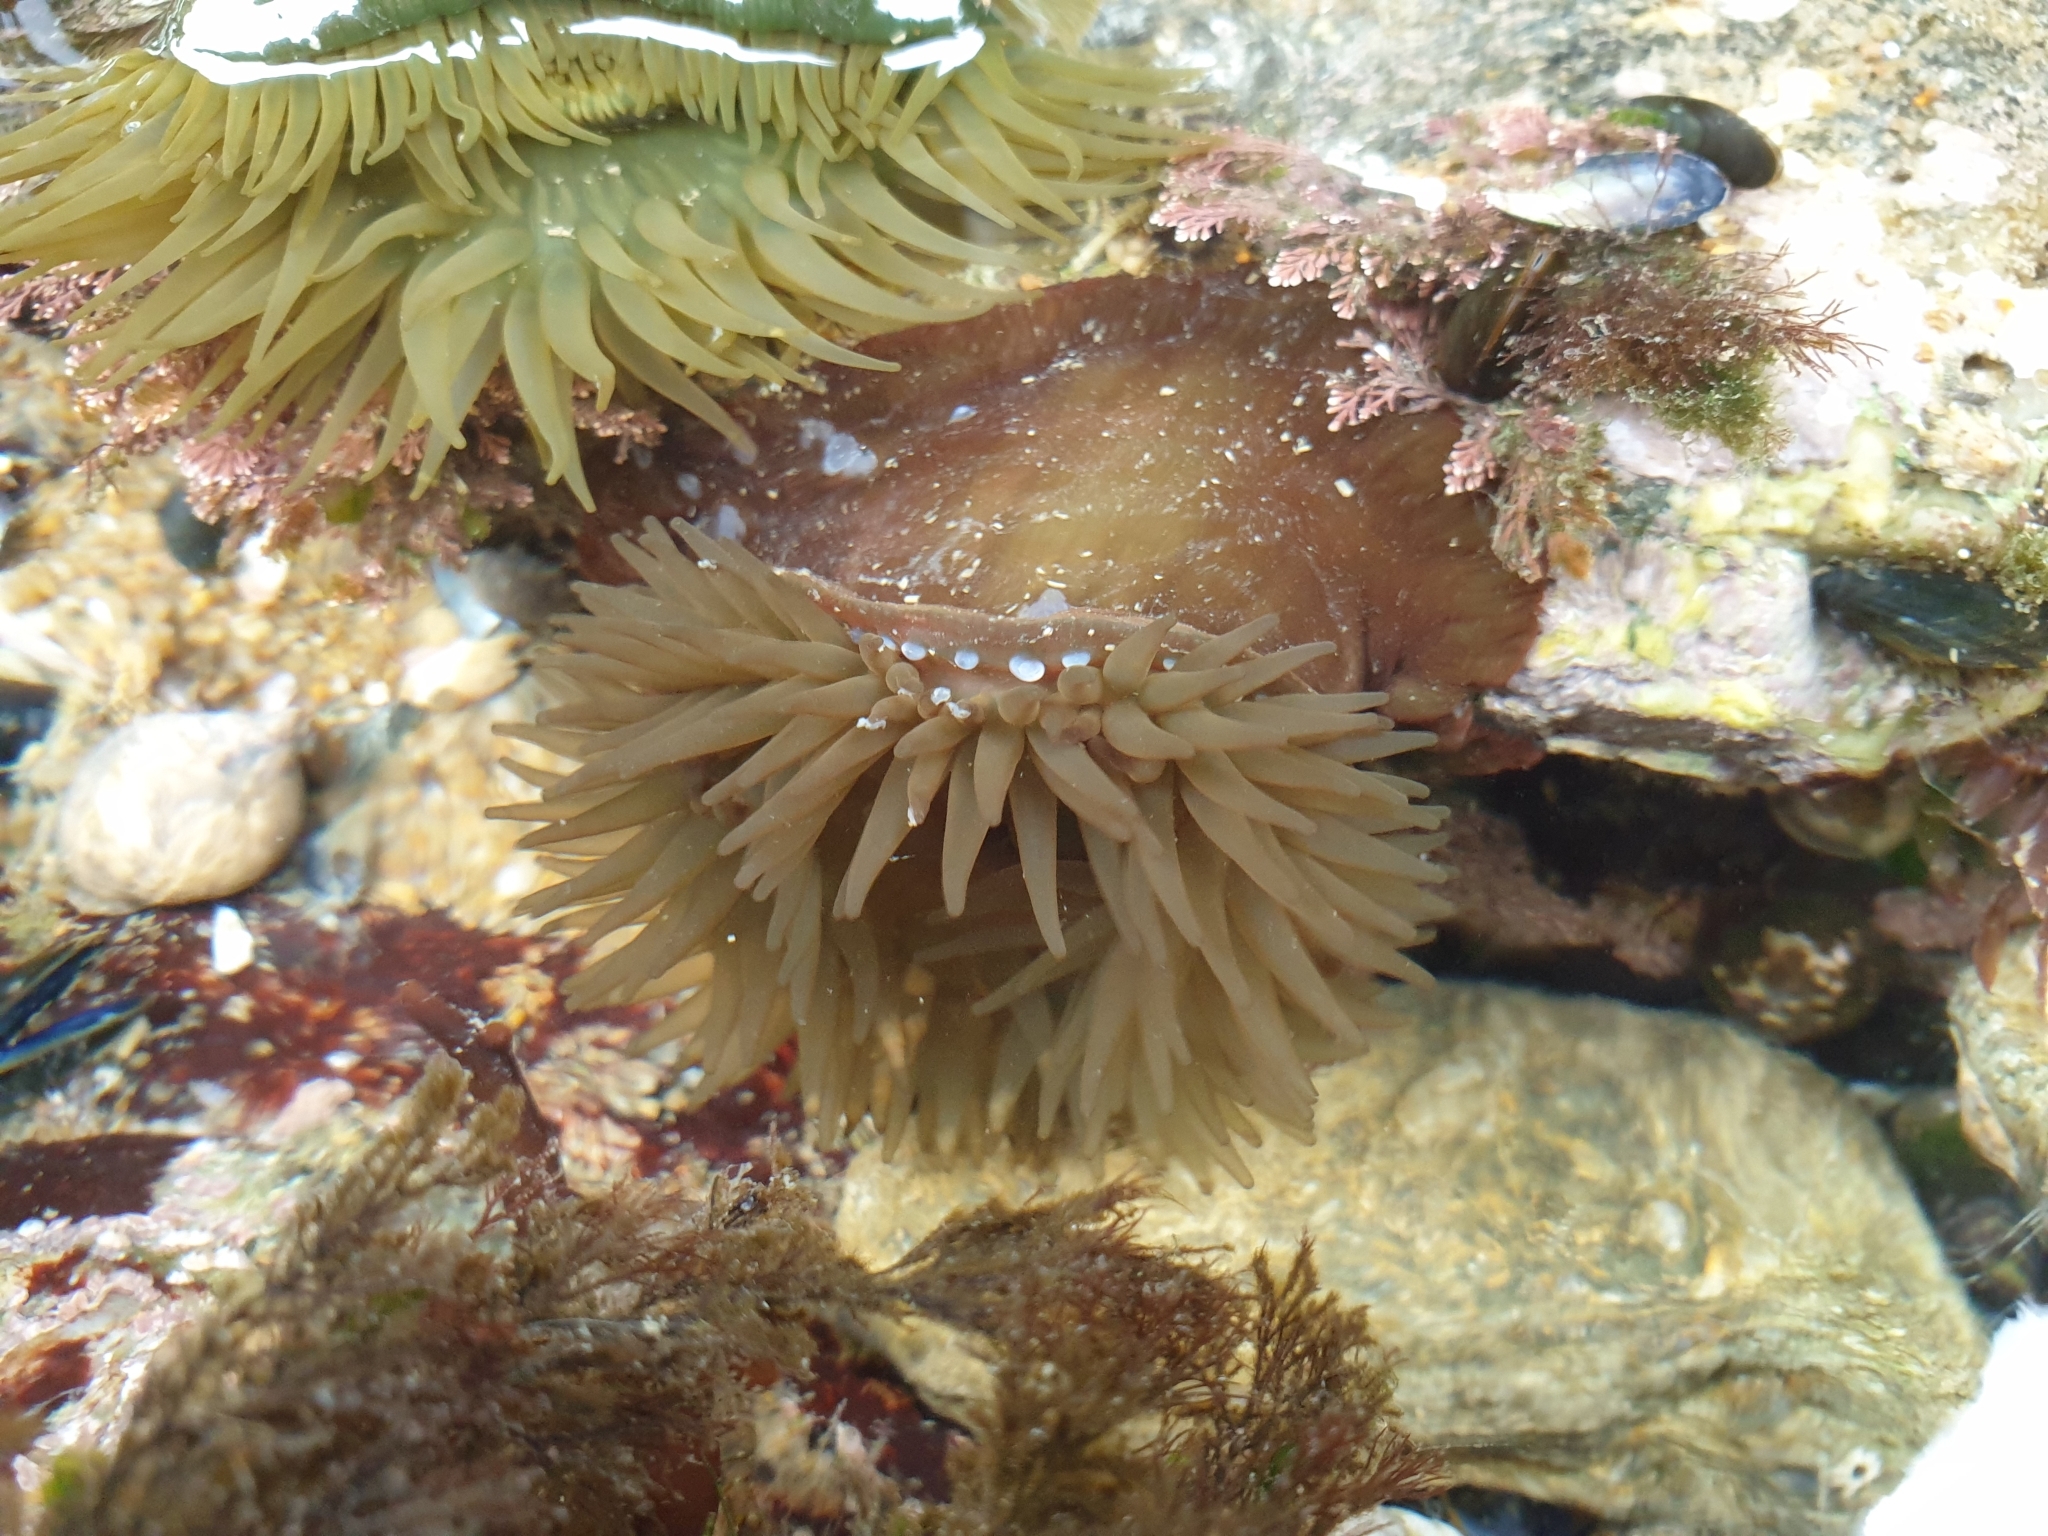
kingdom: Animalia
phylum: Cnidaria
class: Anthozoa
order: Actiniaria
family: Actiniidae
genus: Actinia
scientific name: Actinia equina
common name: Beadlet anemone
